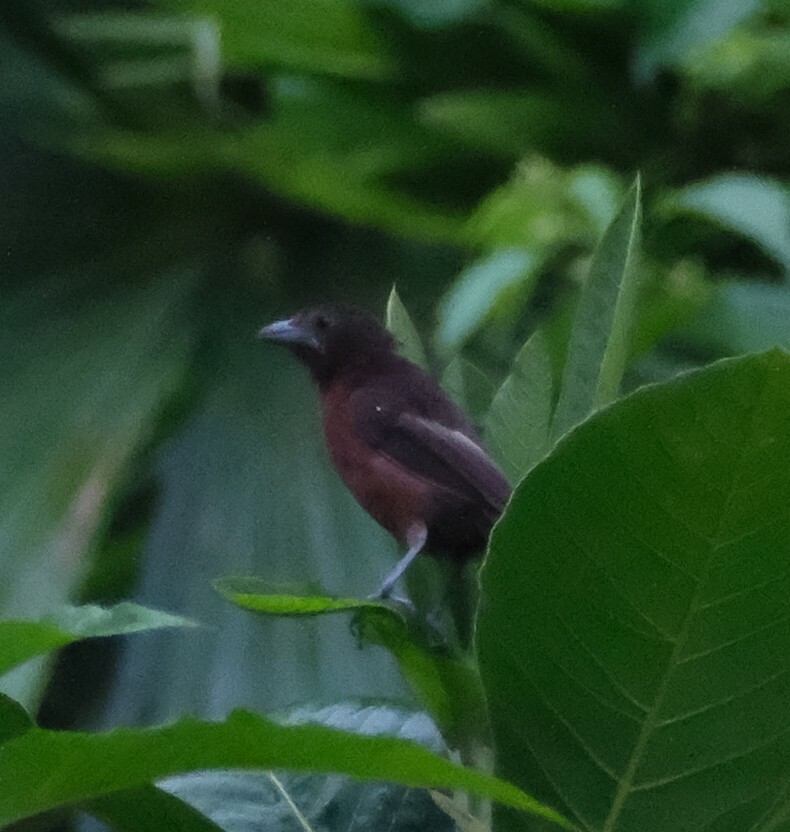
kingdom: Animalia
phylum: Chordata
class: Aves
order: Passeriformes
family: Thraupidae
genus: Ramphocelus
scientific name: Ramphocelus carbo
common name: Silver-beaked tanager
